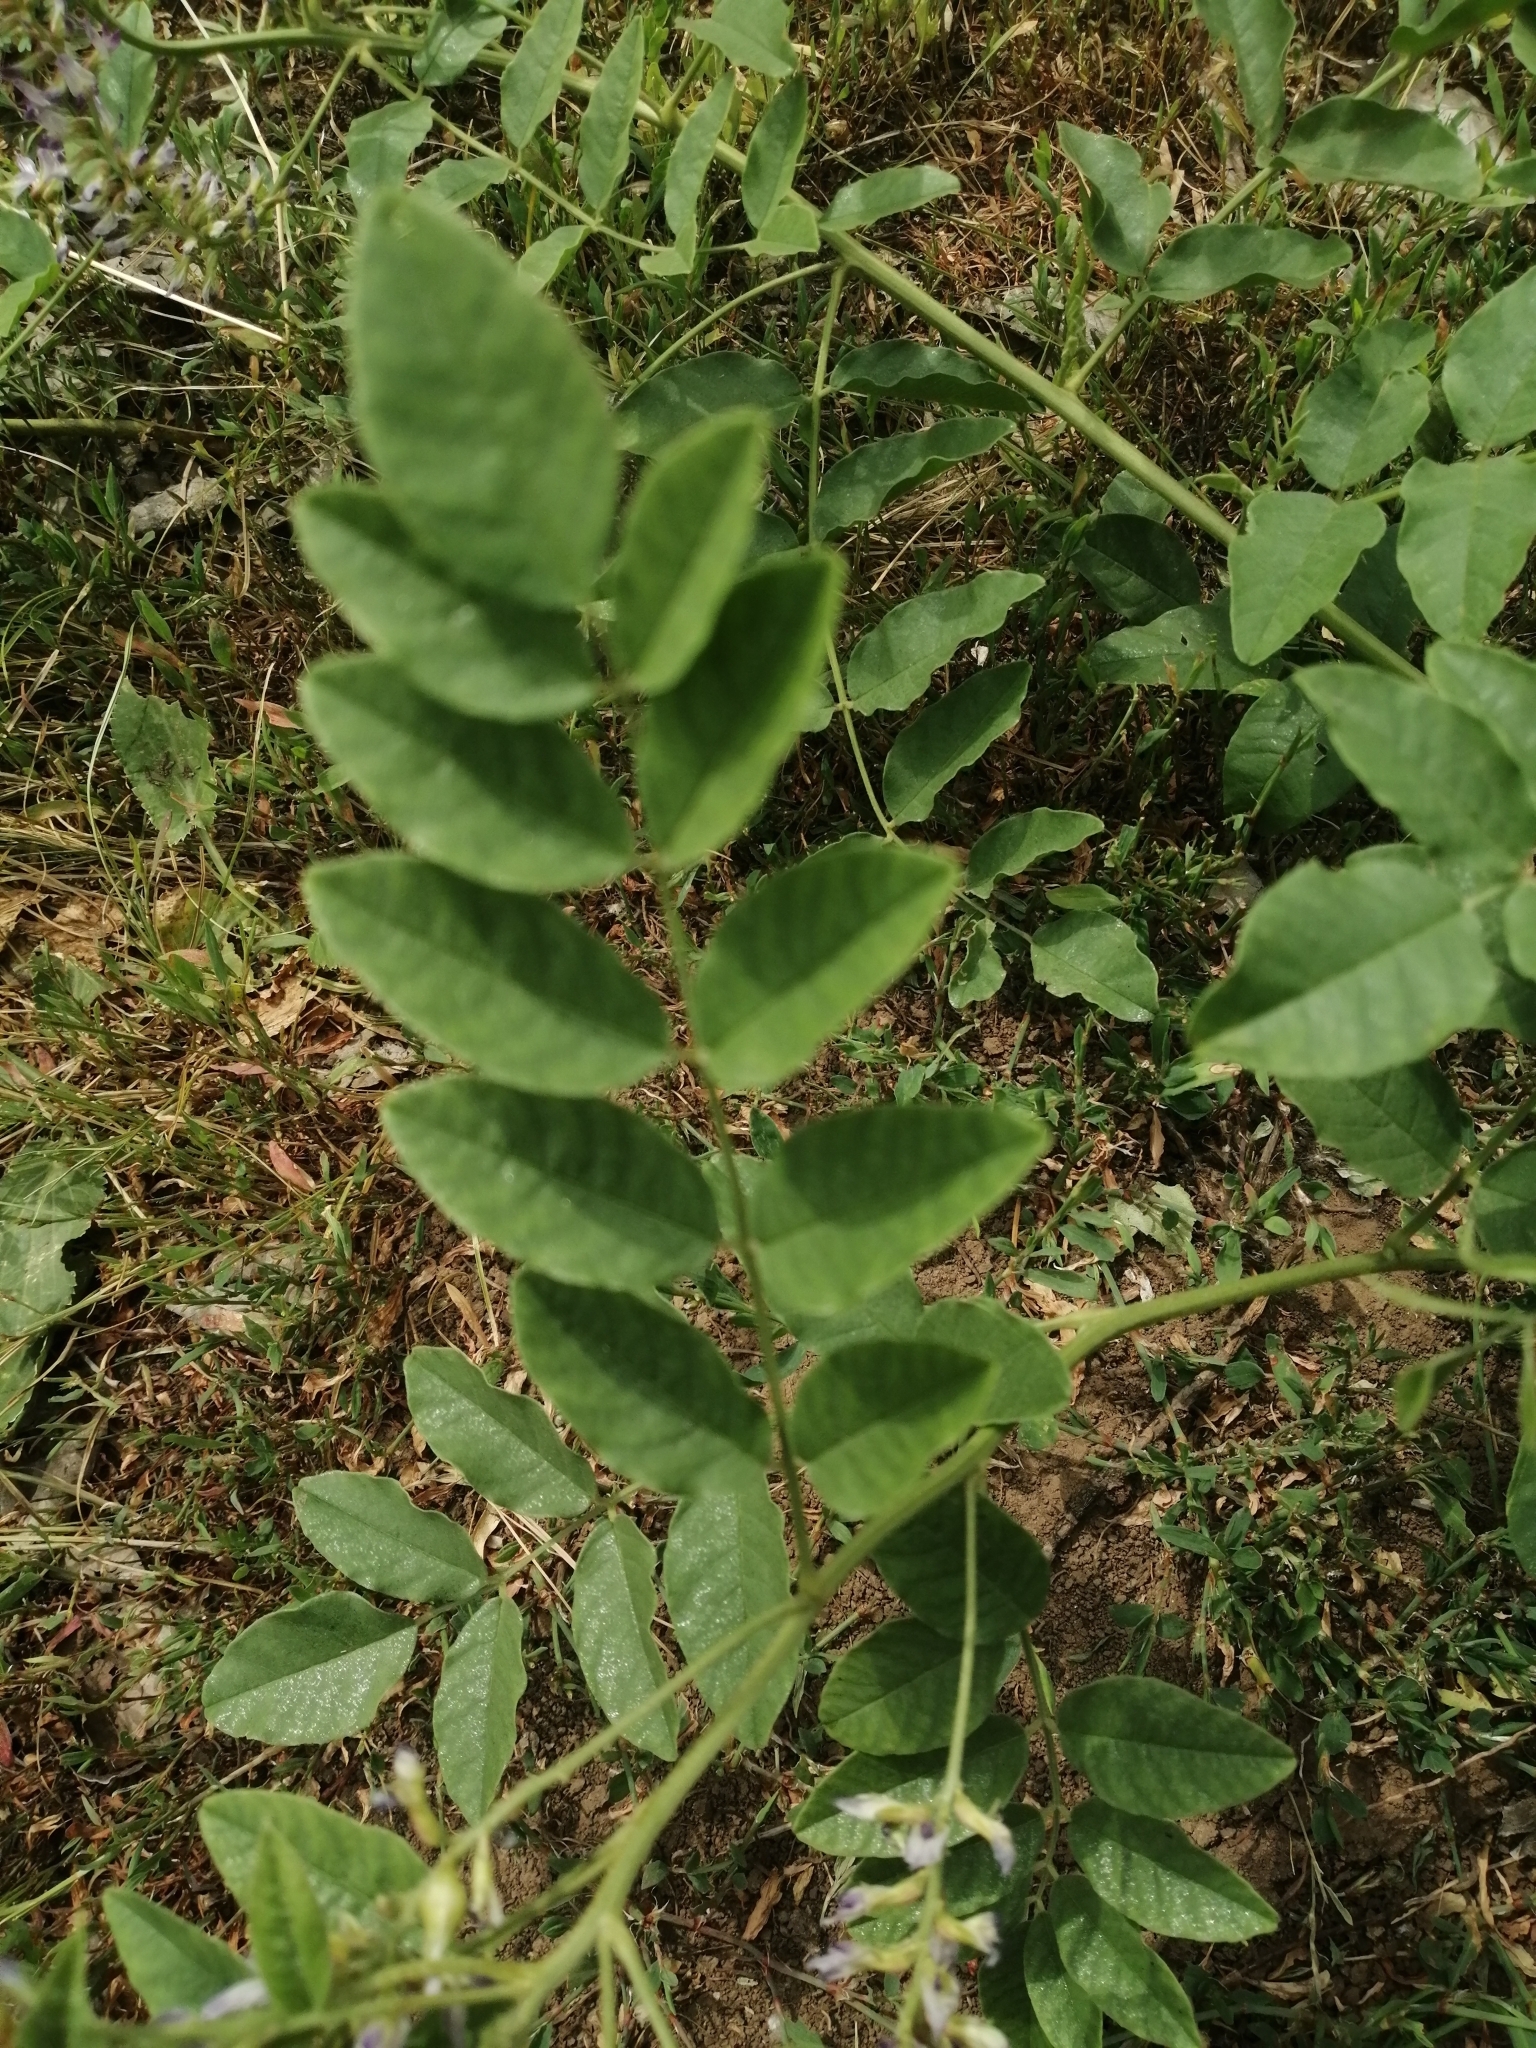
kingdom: Plantae
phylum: Tracheophyta
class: Magnoliopsida
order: Fabales
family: Fabaceae
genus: Glycyrrhiza
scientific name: Glycyrrhiza glabra
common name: Liquorice
